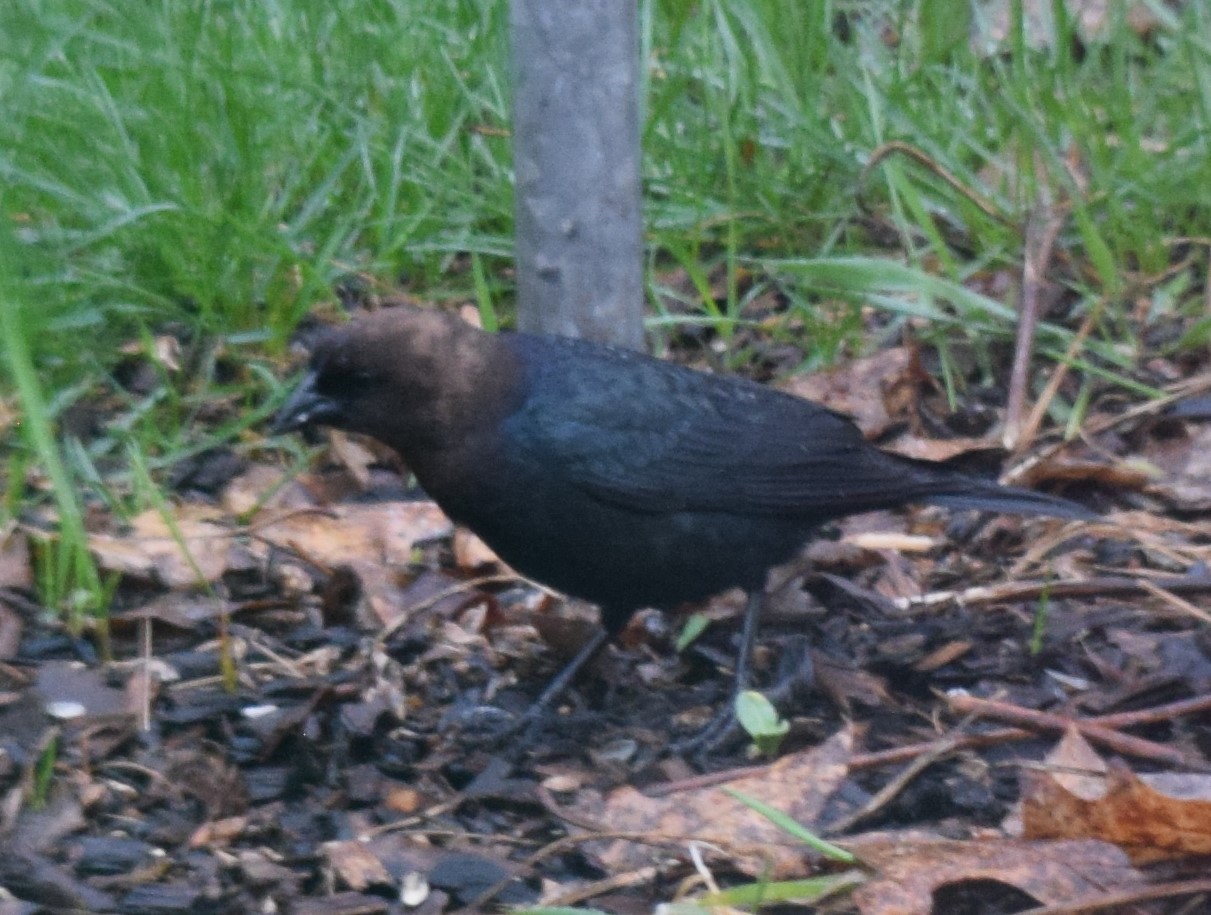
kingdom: Animalia
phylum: Chordata
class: Aves
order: Passeriformes
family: Icteridae
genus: Molothrus
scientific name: Molothrus ater
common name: Brown-headed cowbird
